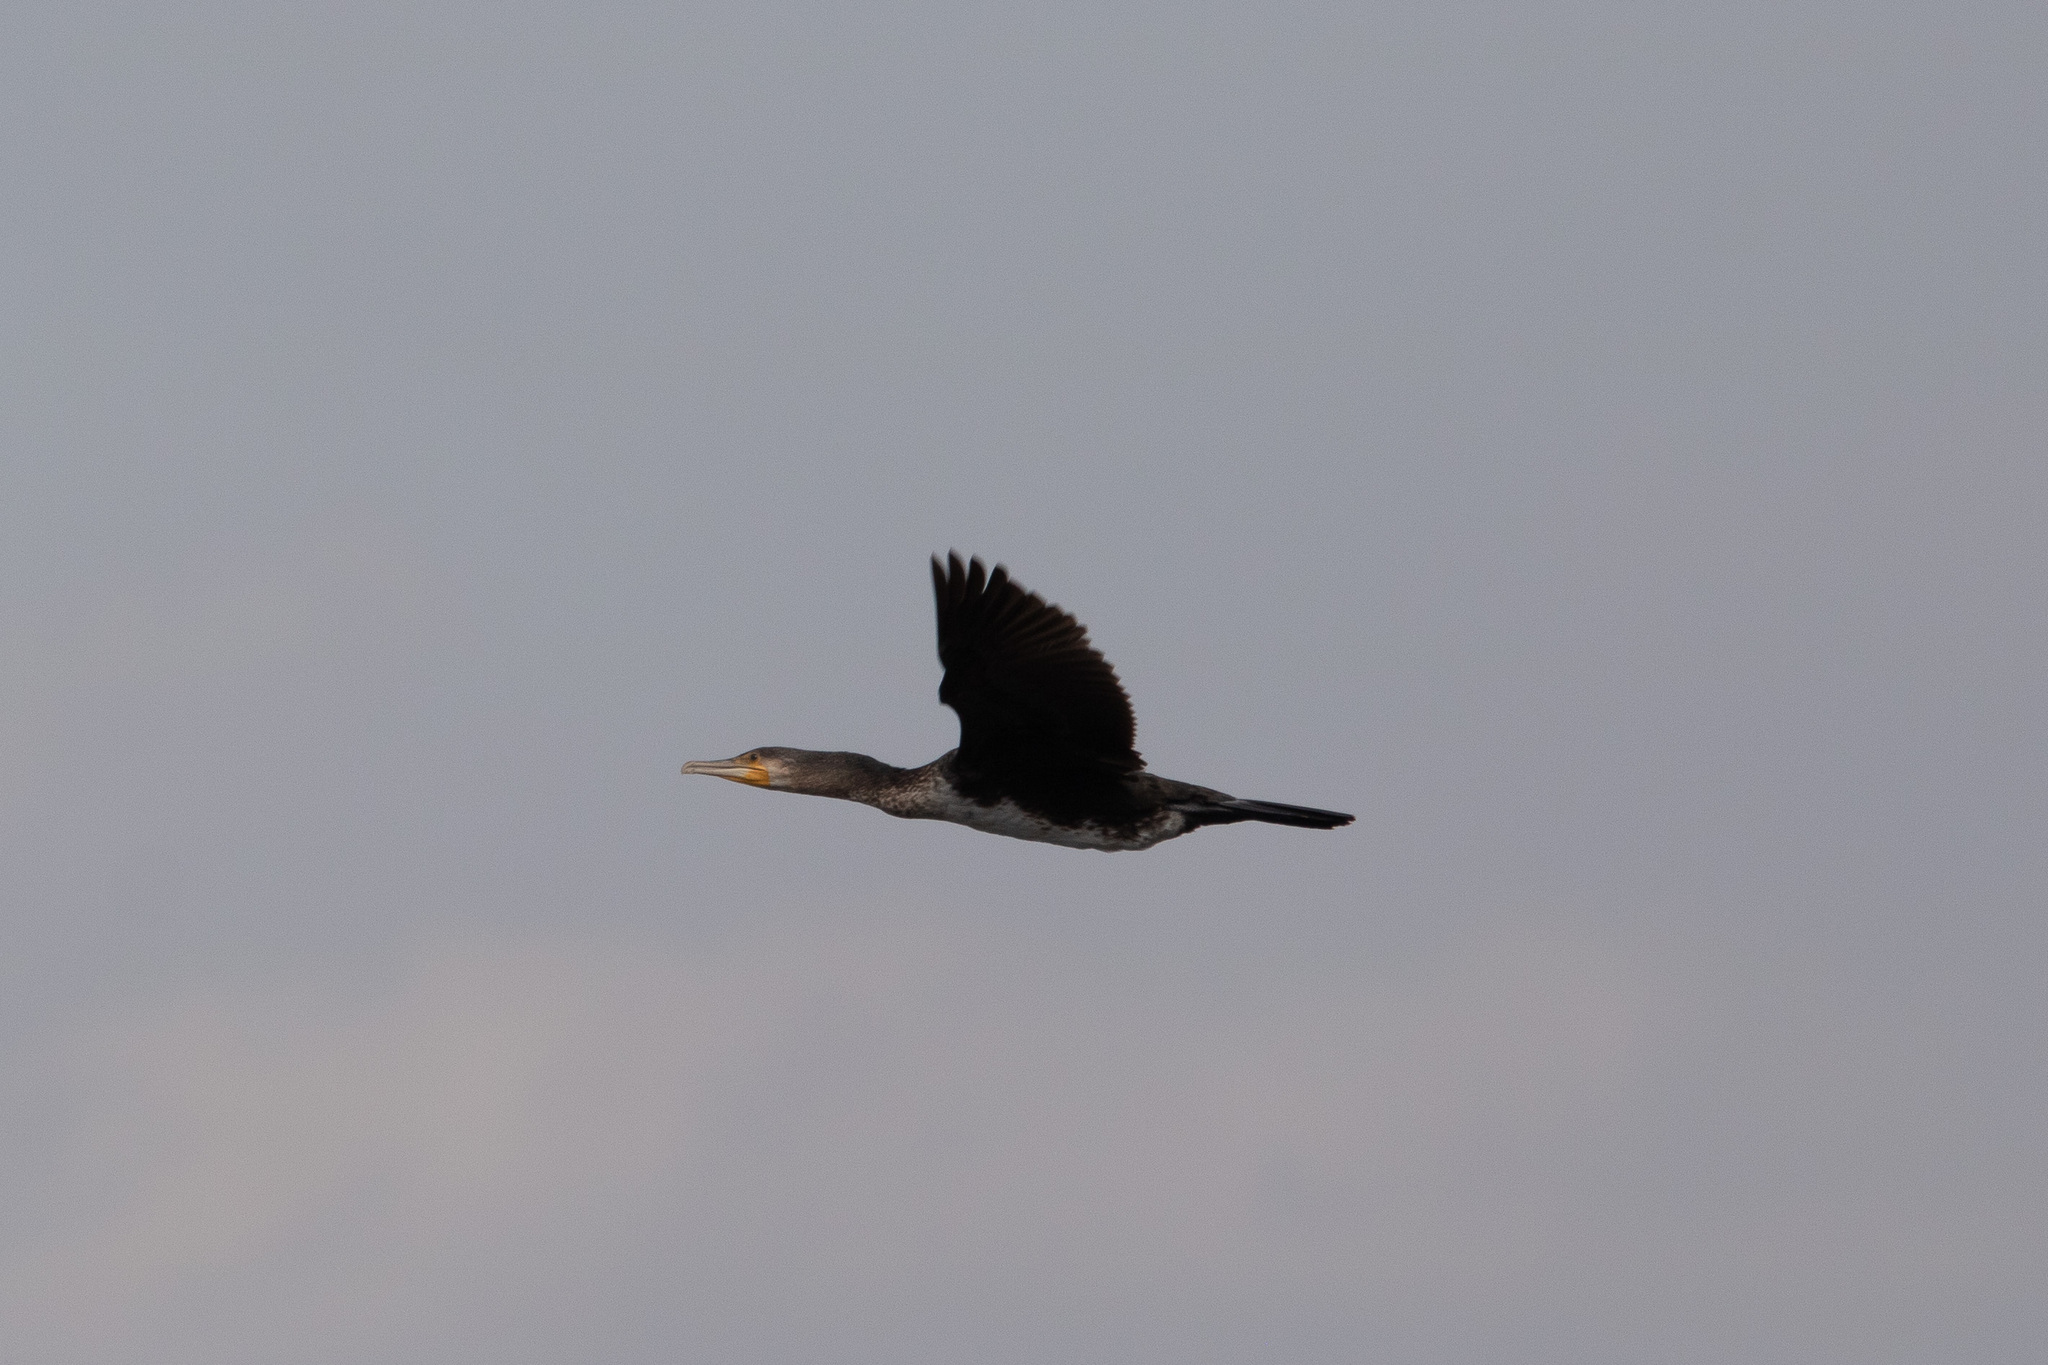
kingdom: Animalia
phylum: Chordata
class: Aves
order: Suliformes
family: Phalacrocoracidae
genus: Phalacrocorax
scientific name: Phalacrocorax carbo
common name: Great cormorant
